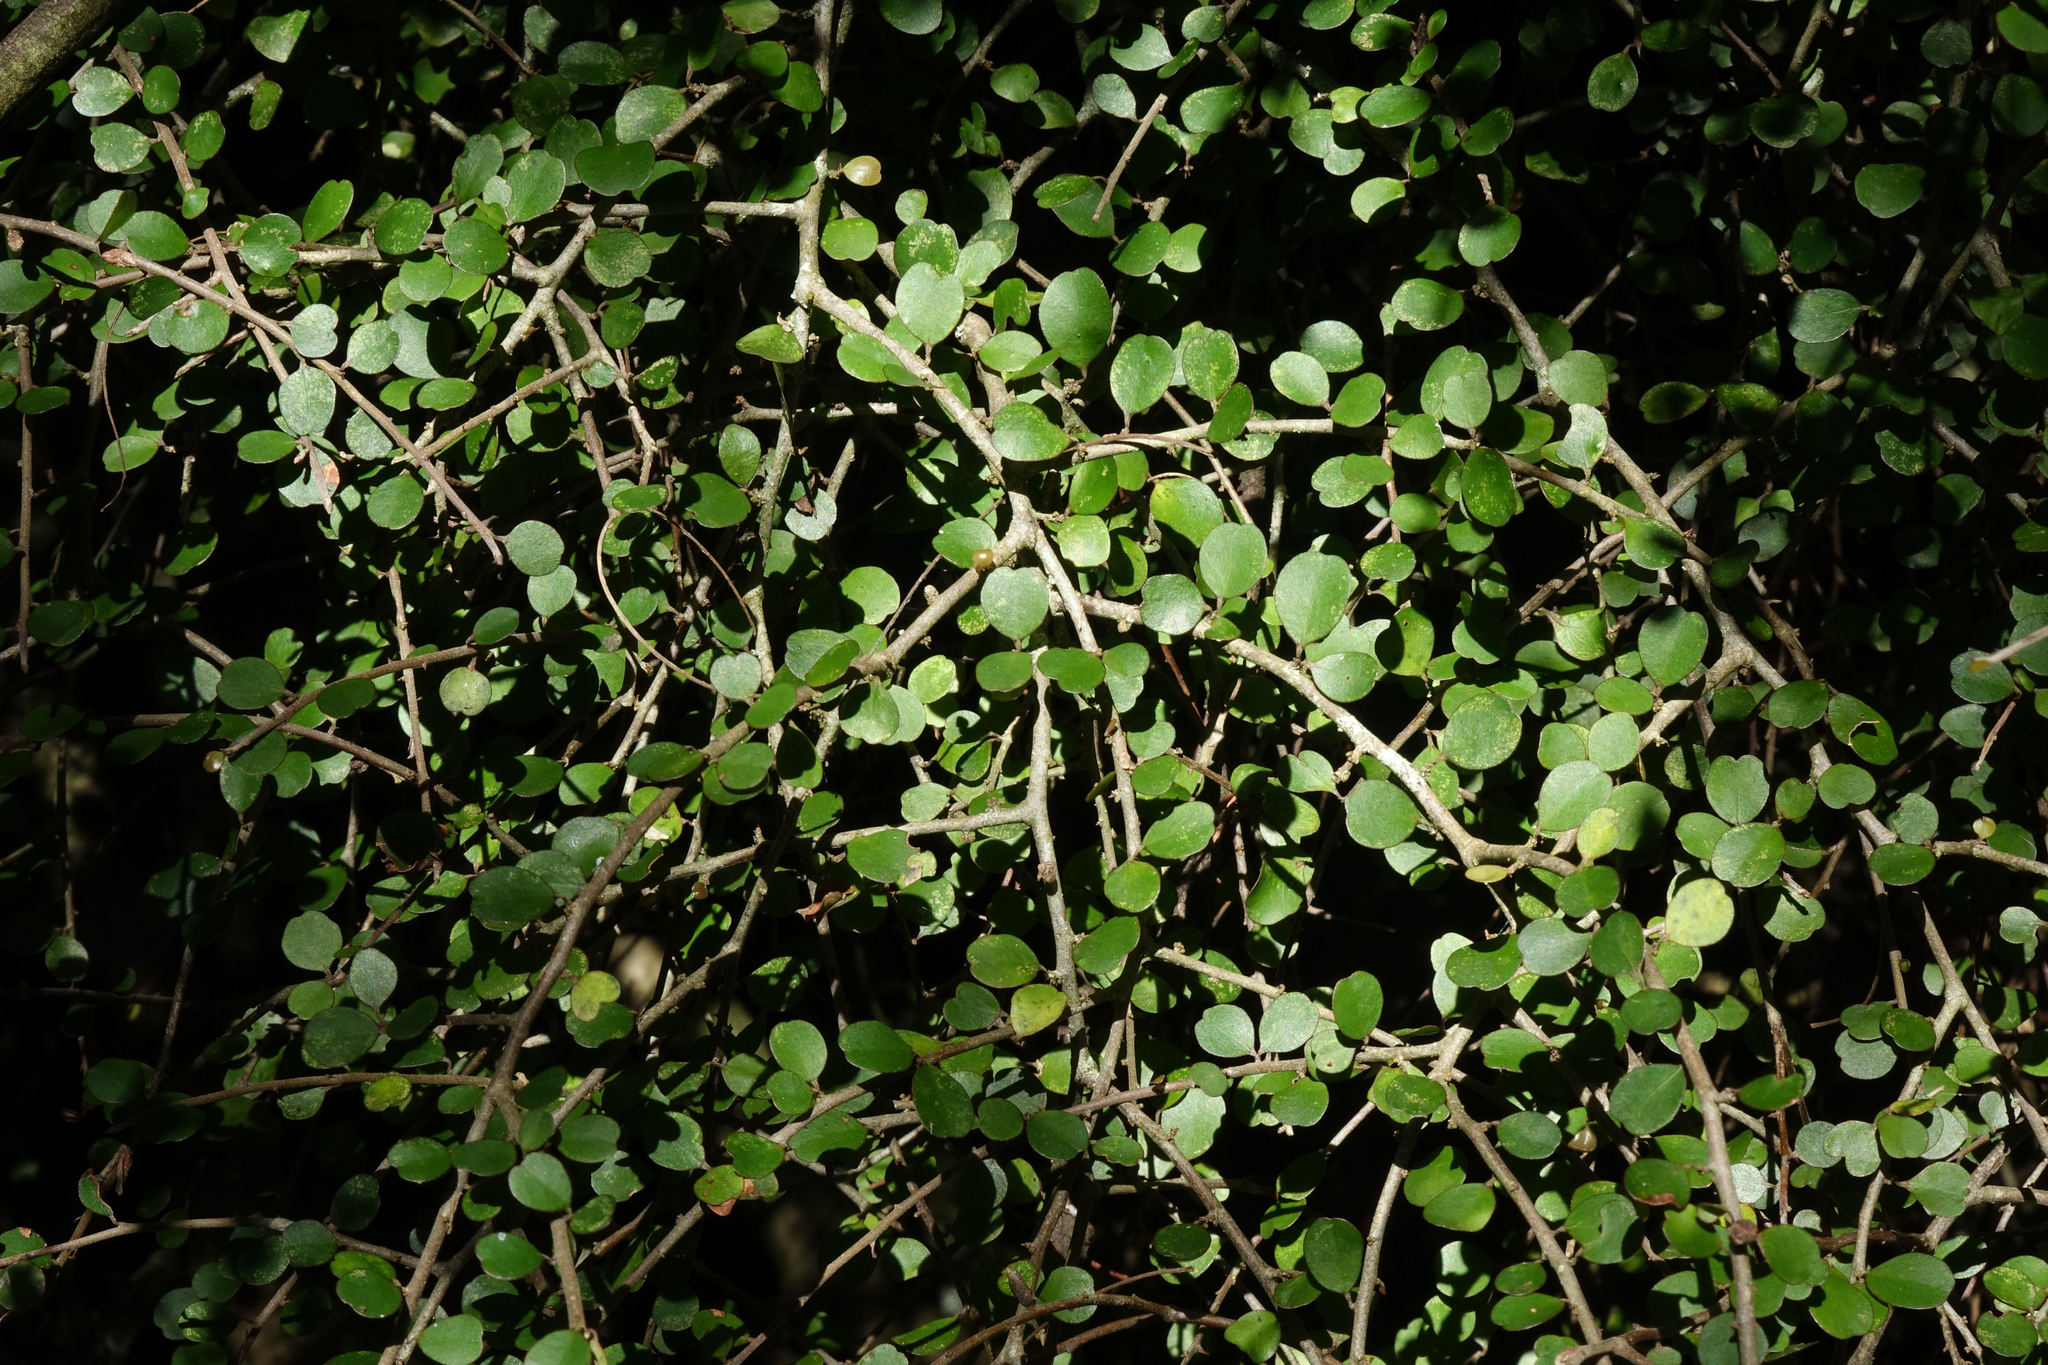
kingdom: Plantae
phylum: Tracheophyta
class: Magnoliopsida
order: Ericales
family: Primulaceae
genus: Myrsine
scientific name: Myrsine divaricata
